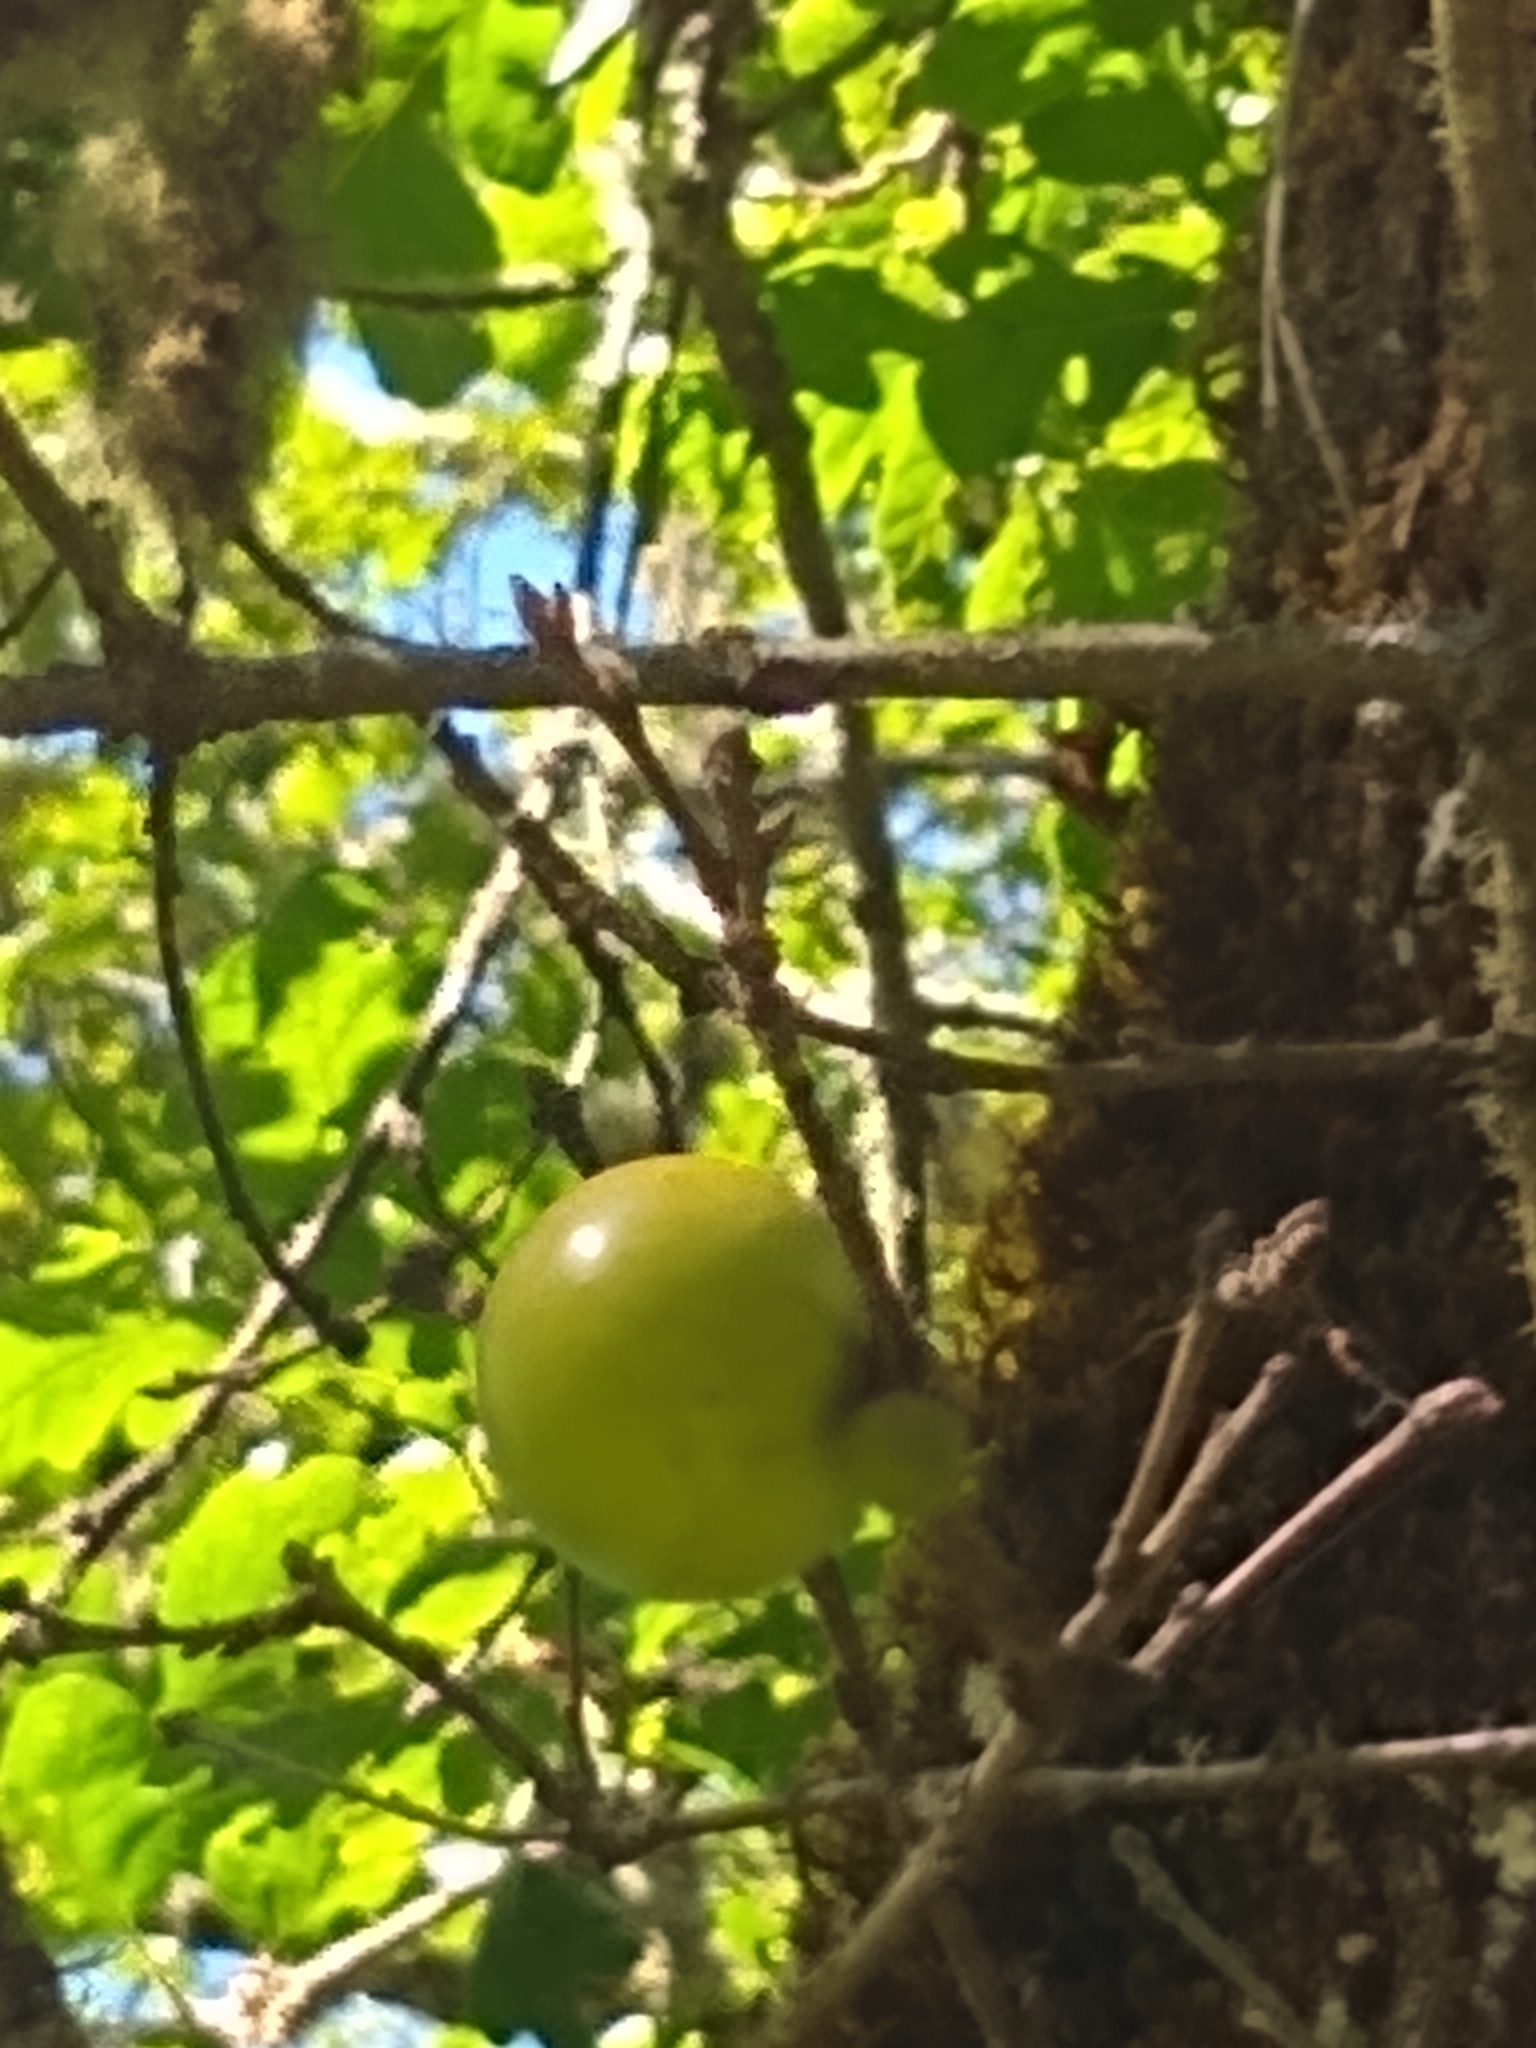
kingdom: Animalia
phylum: Arthropoda
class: Insecta
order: Hymenoptera
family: Cynipidae
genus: Andricus
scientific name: Andricus quercuscalifornicus
